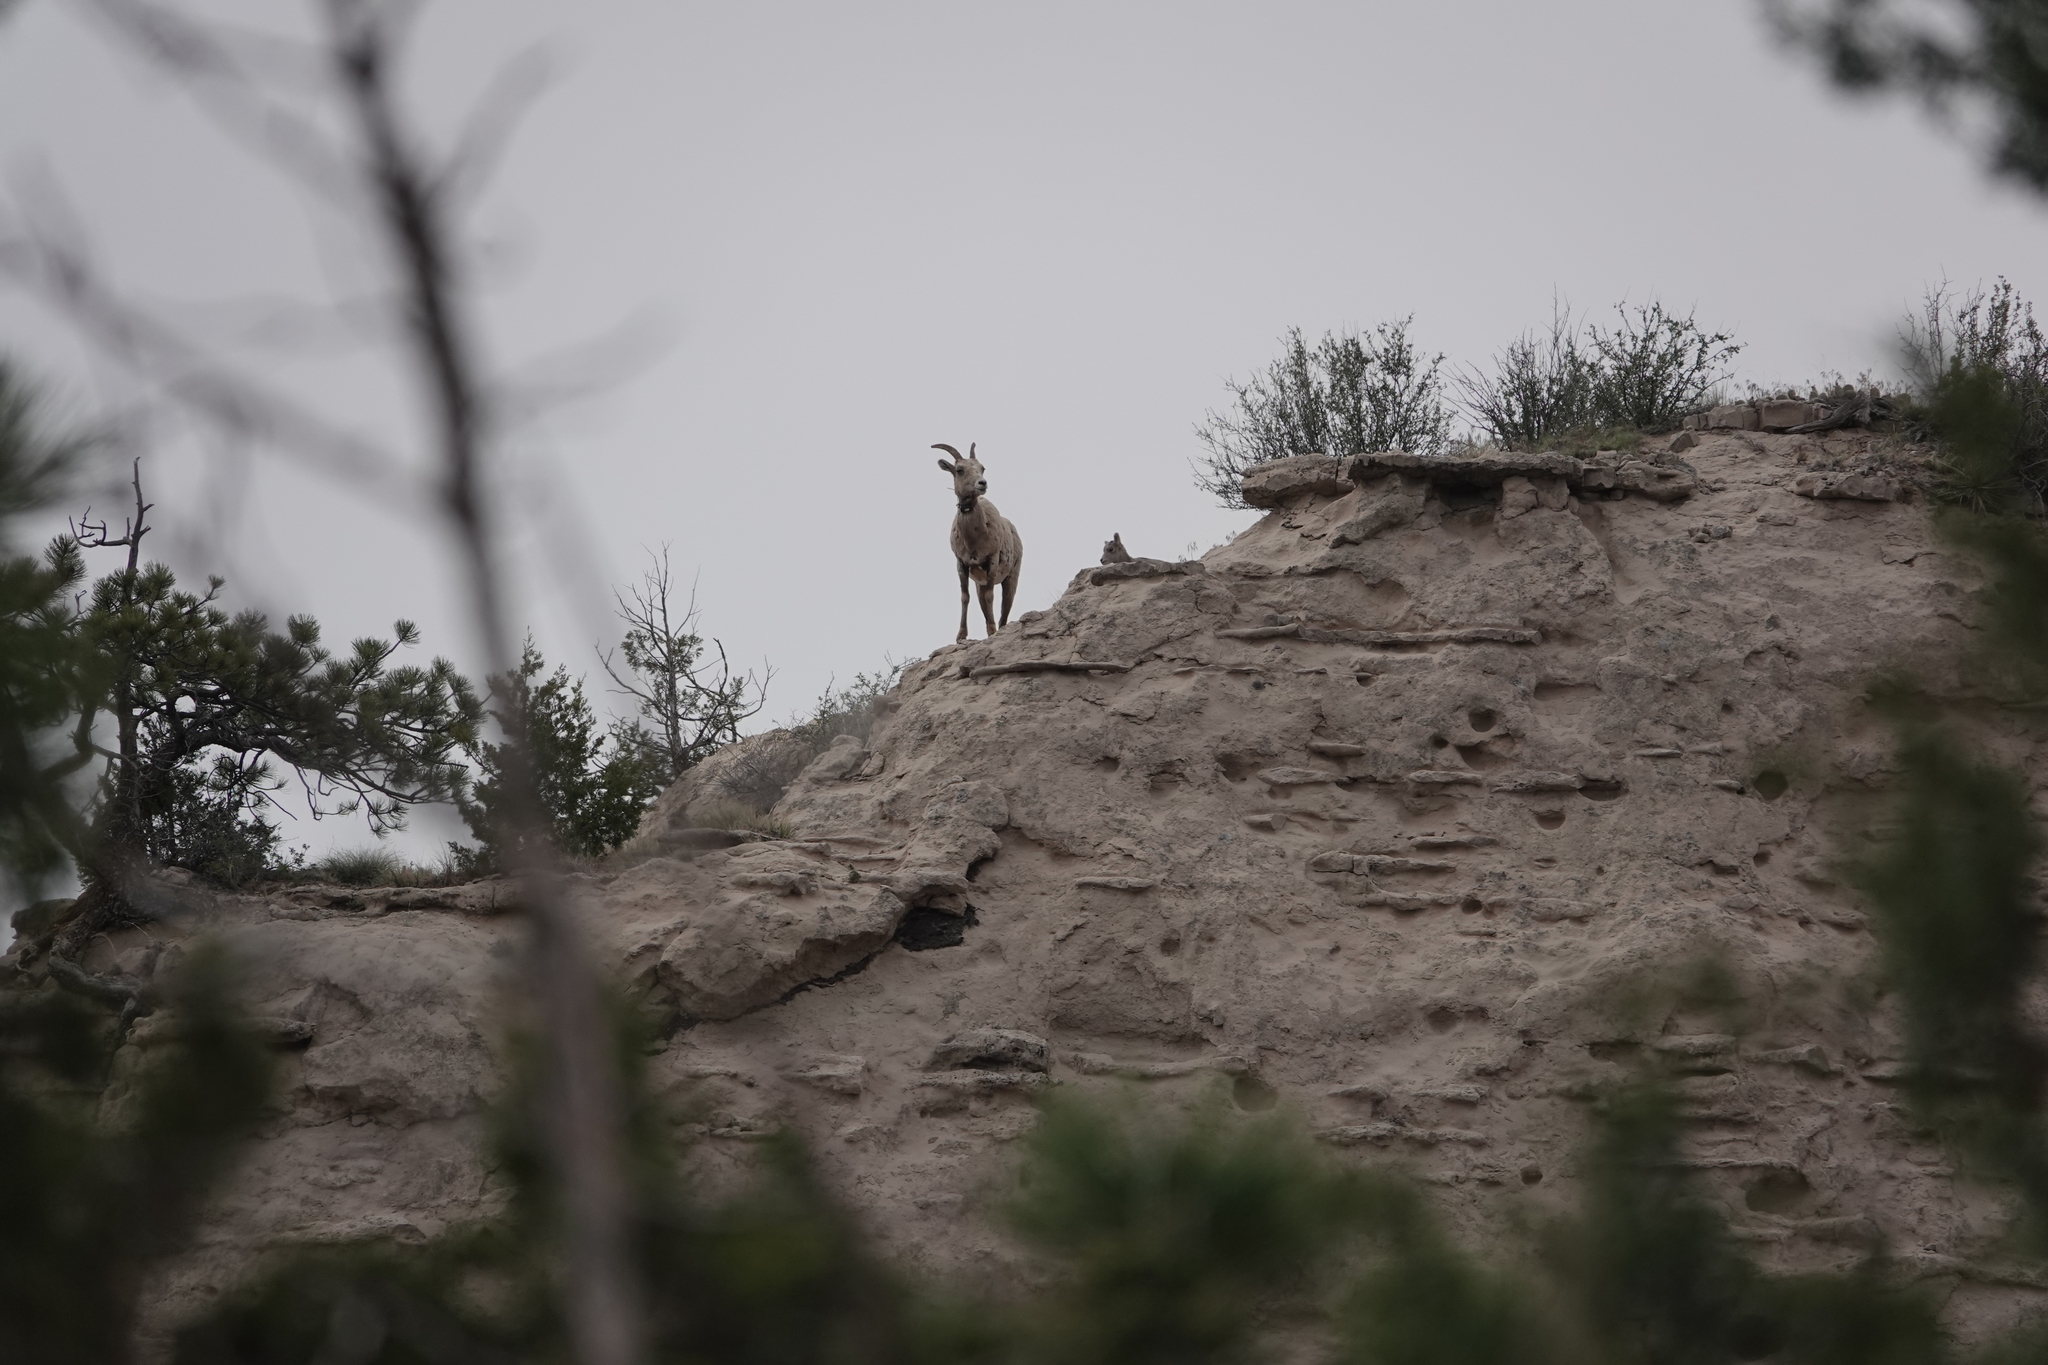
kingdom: Animalia
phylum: Chordata
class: Mammalia
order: Artiodactyla
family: Bovidae
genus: Ovis
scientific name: Ovis canadensis
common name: Bighorn sheep
